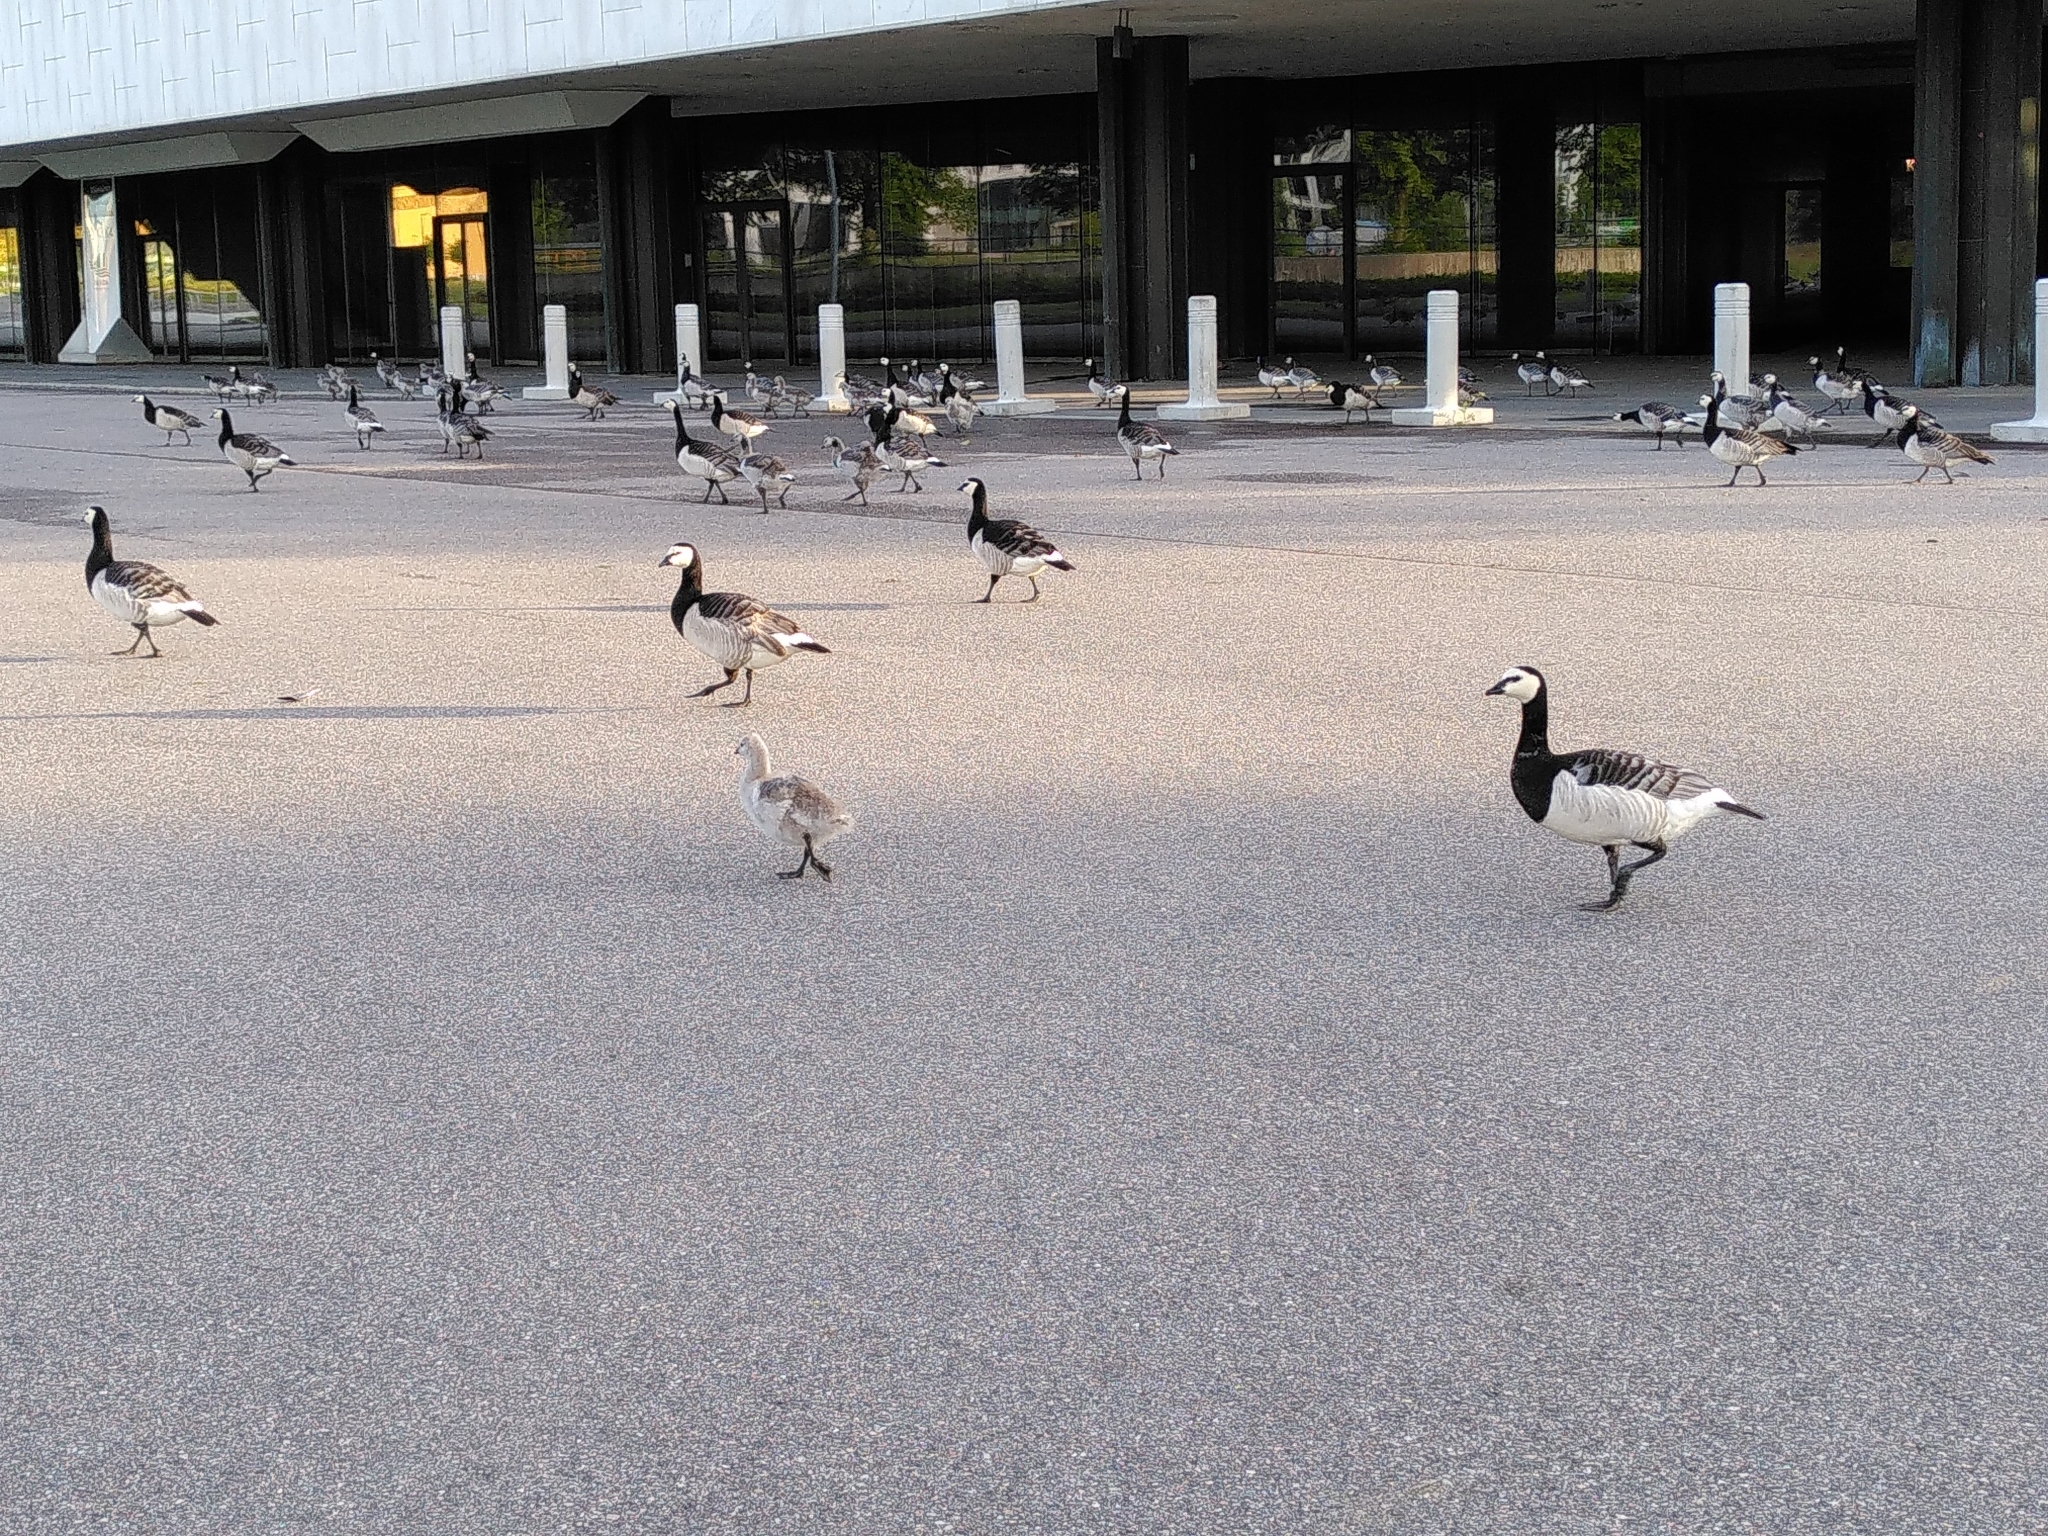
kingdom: Animalia
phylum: Chordata
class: Aves
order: Anseriformes
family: Anatidae
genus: Branta
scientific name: Branta leucopsis
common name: Barnacle goose
